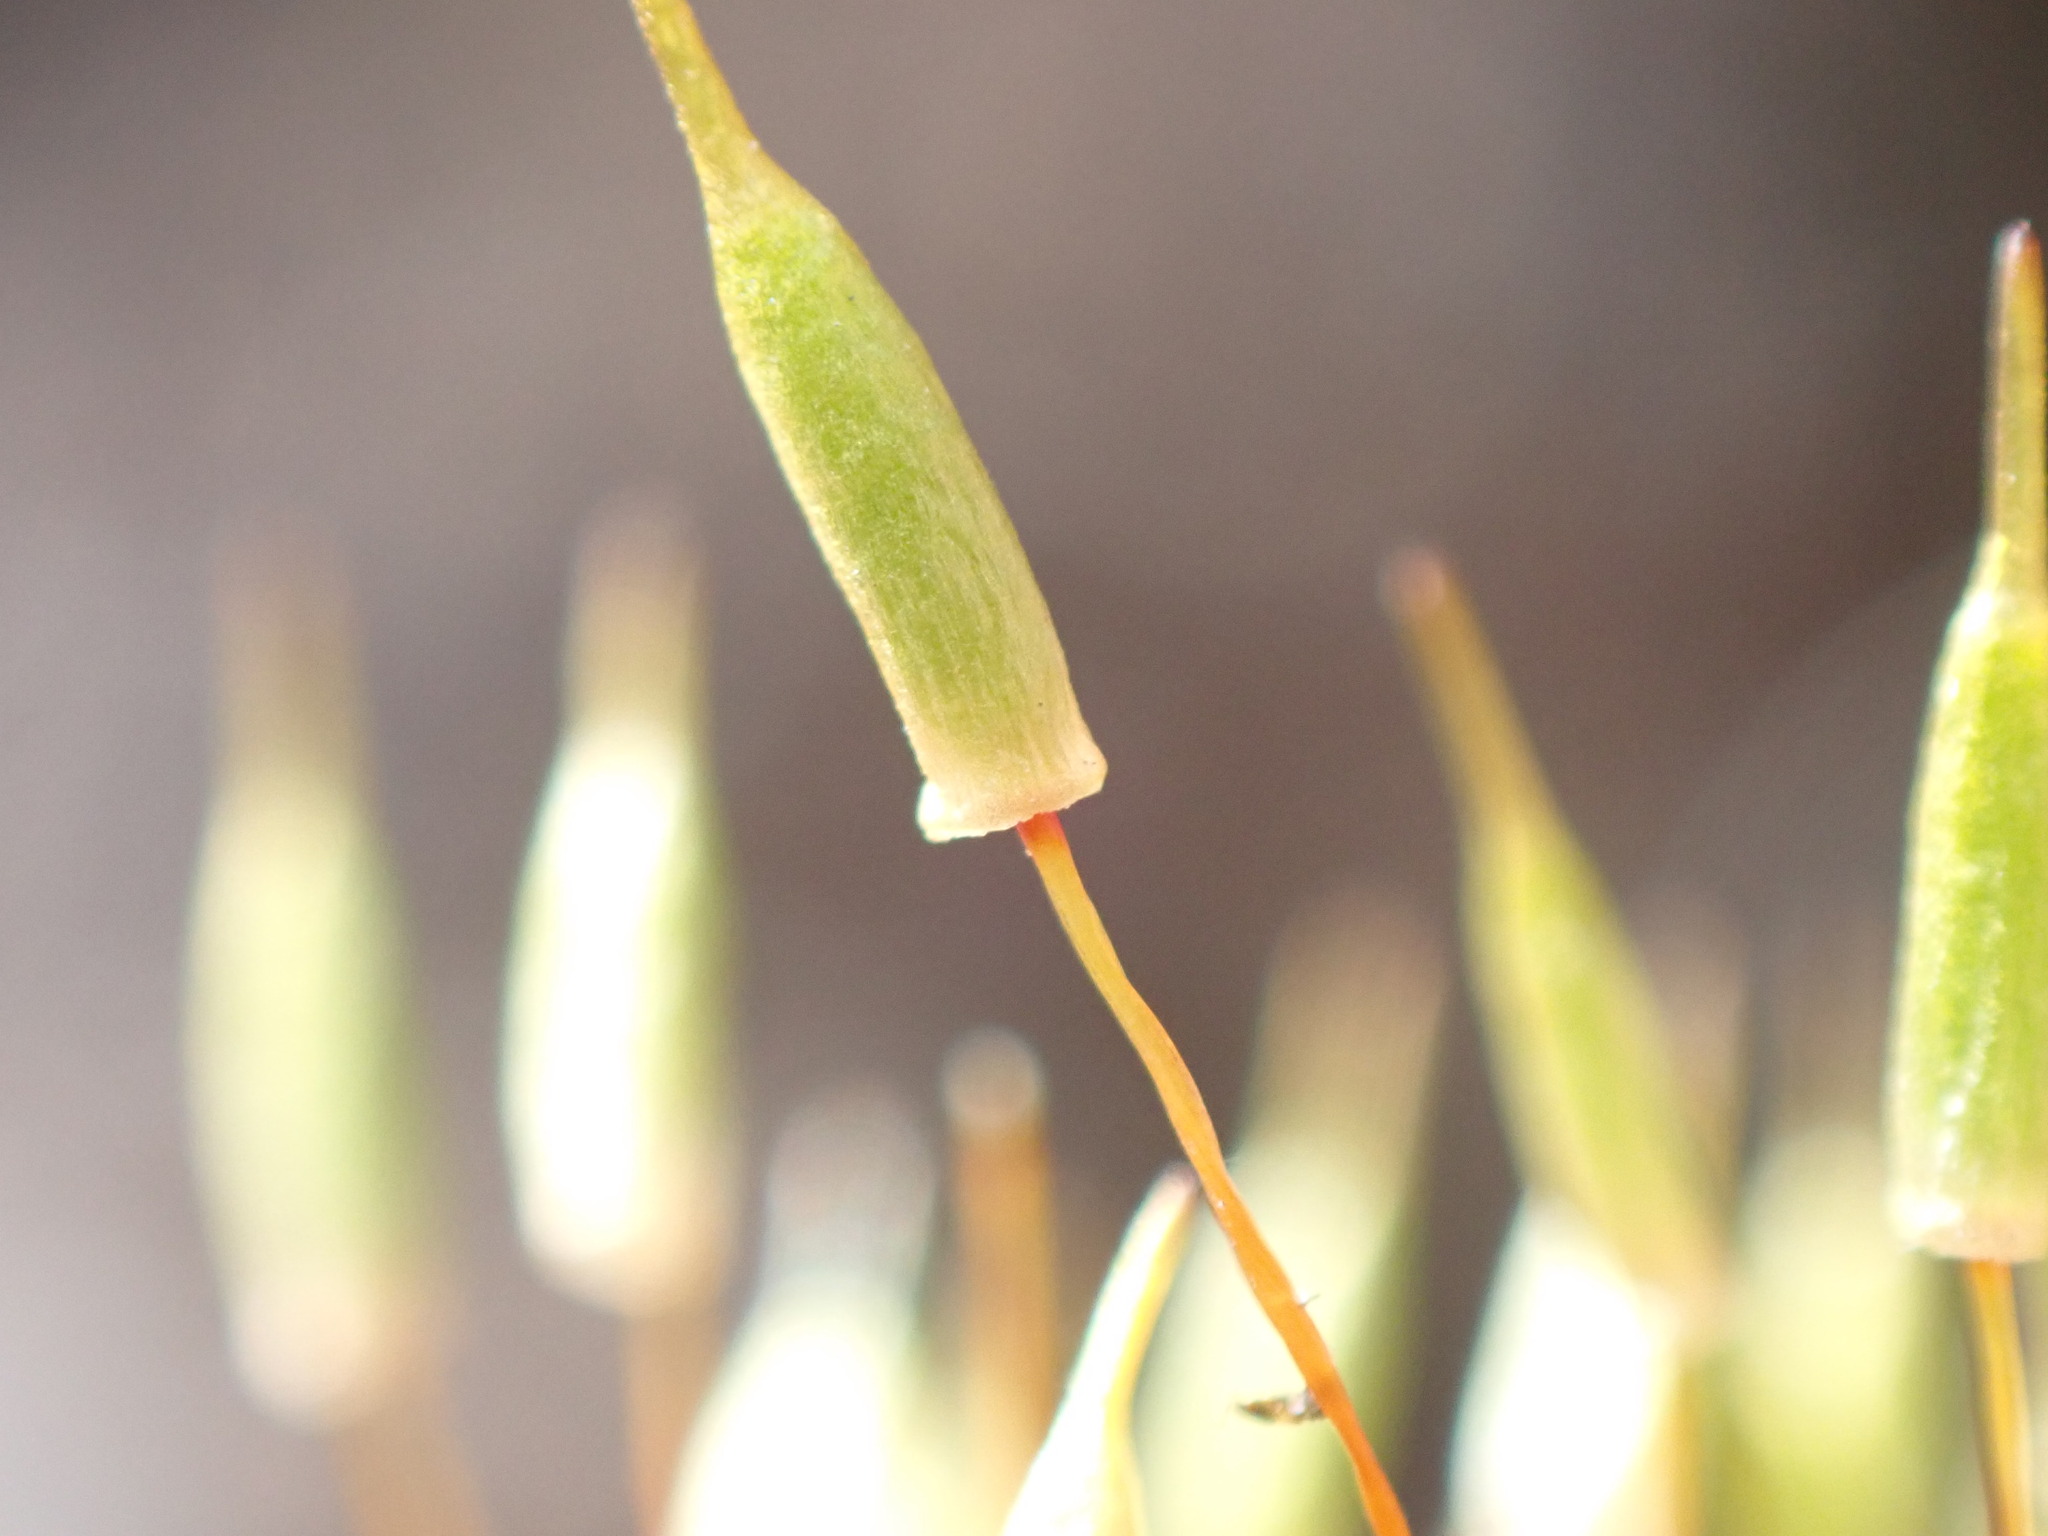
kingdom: Plantae
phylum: Bryophyta
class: Bryopsida
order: Encalyptales
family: Encalyptaceae
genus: Encalypta
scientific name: Encalypta vulgaris
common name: Common extinguisher-moss
